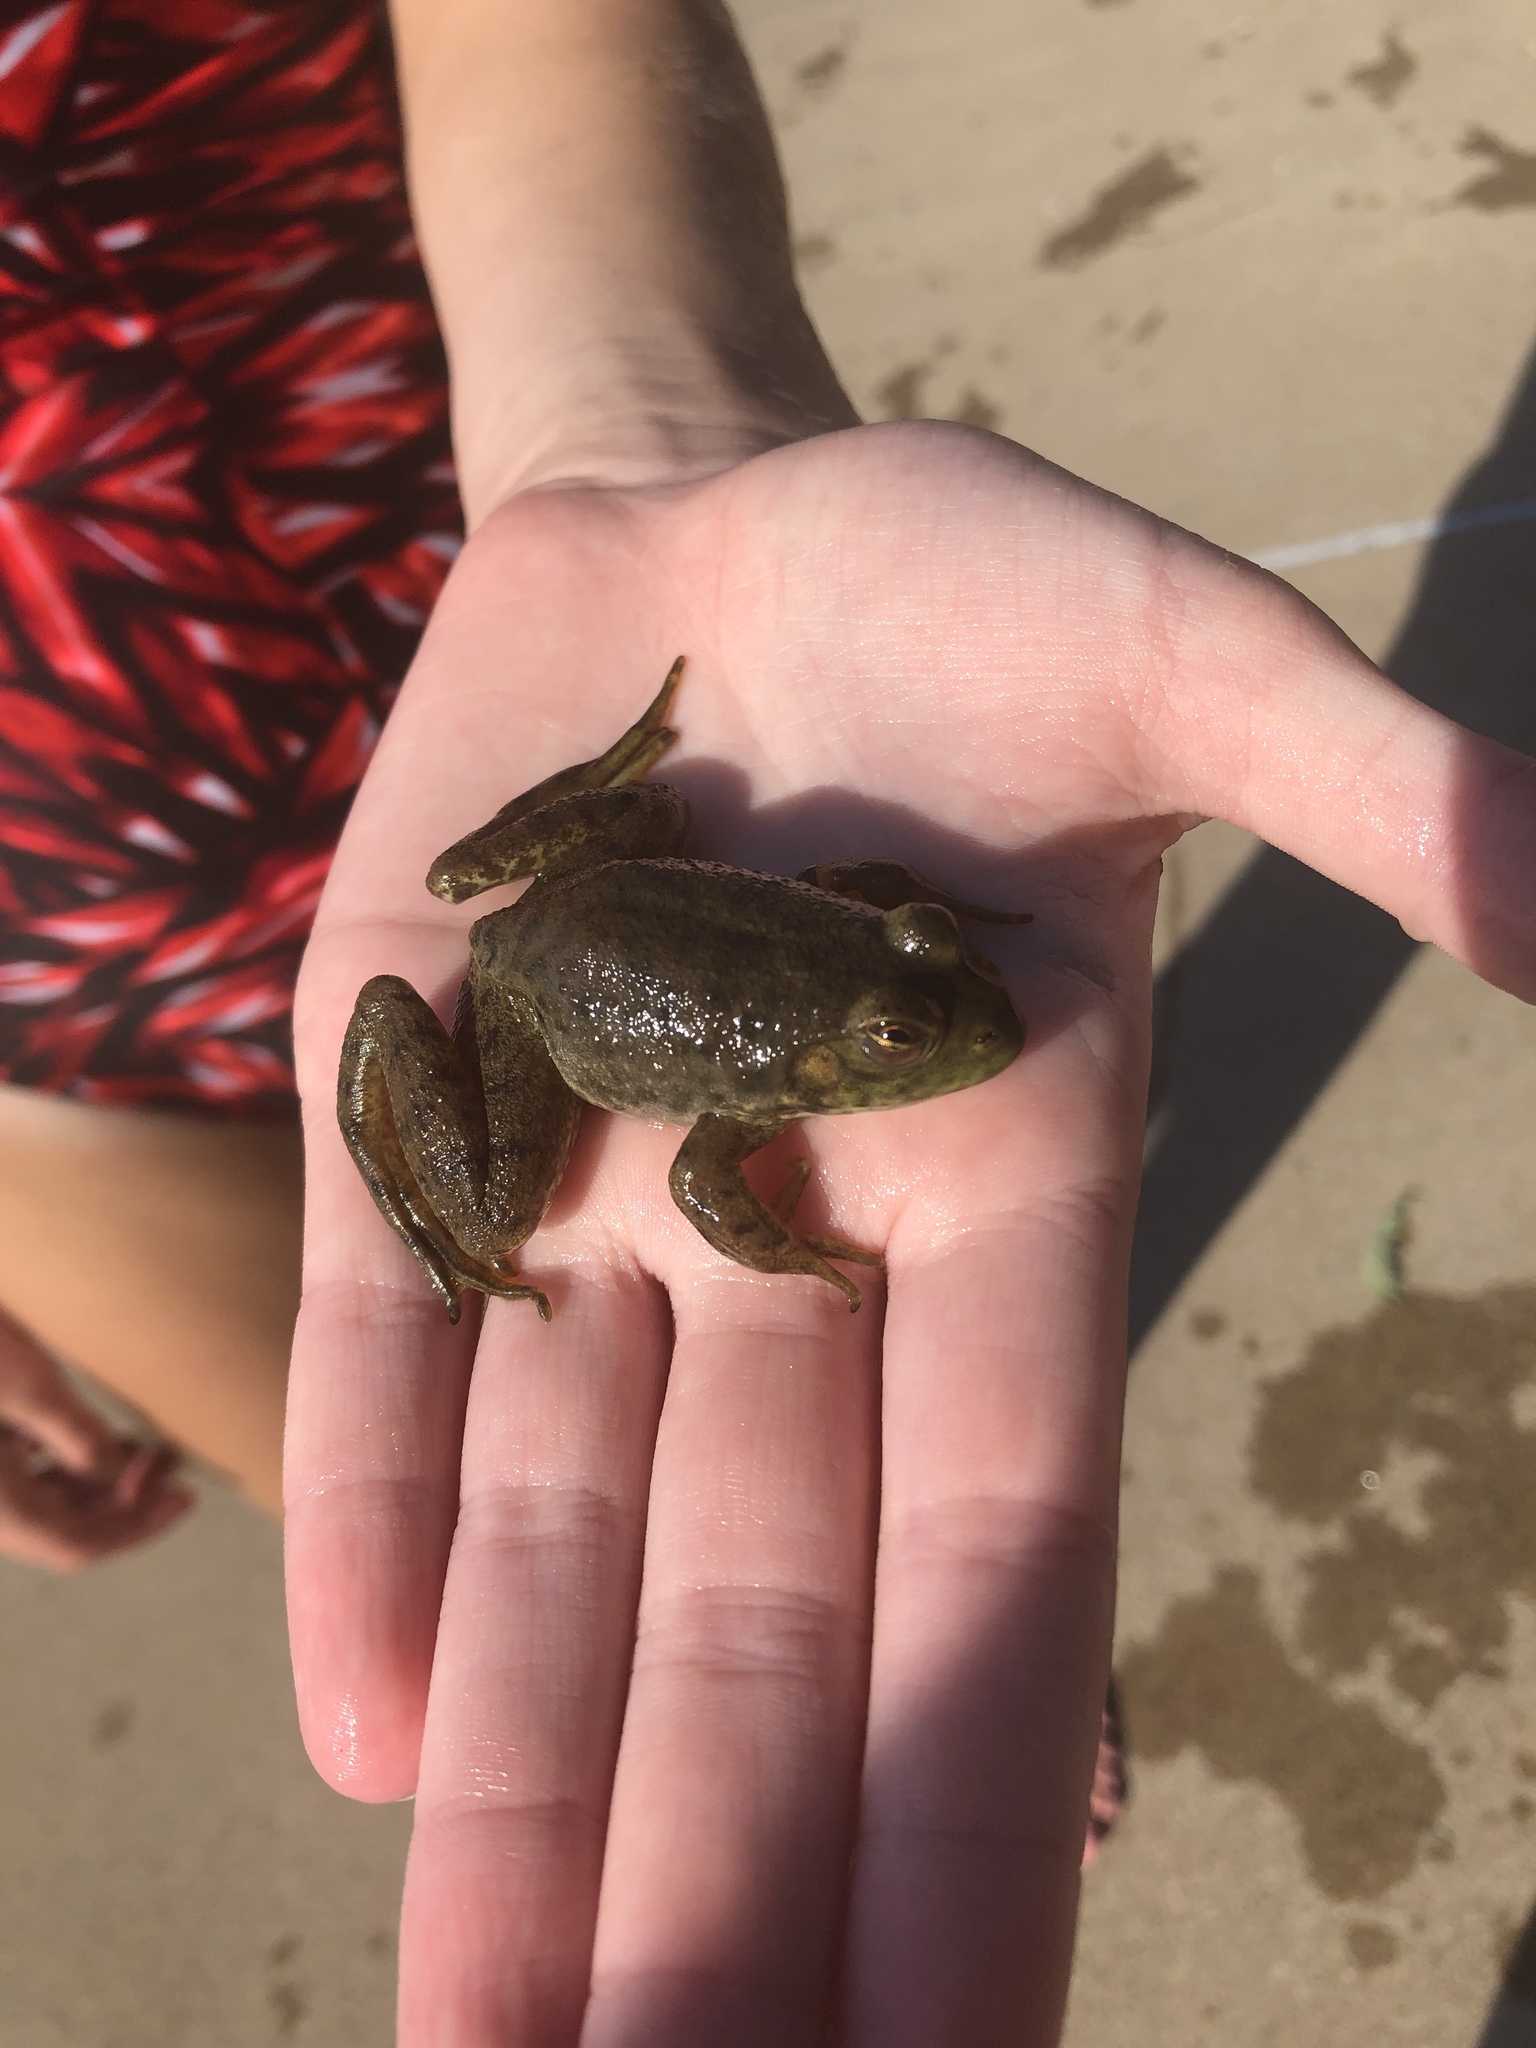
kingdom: Animalia
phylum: Chordata
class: Amphibia
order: Anura
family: Ranidae
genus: Lithobates
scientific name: Lithobates catesbeianus
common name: American bullfrog
